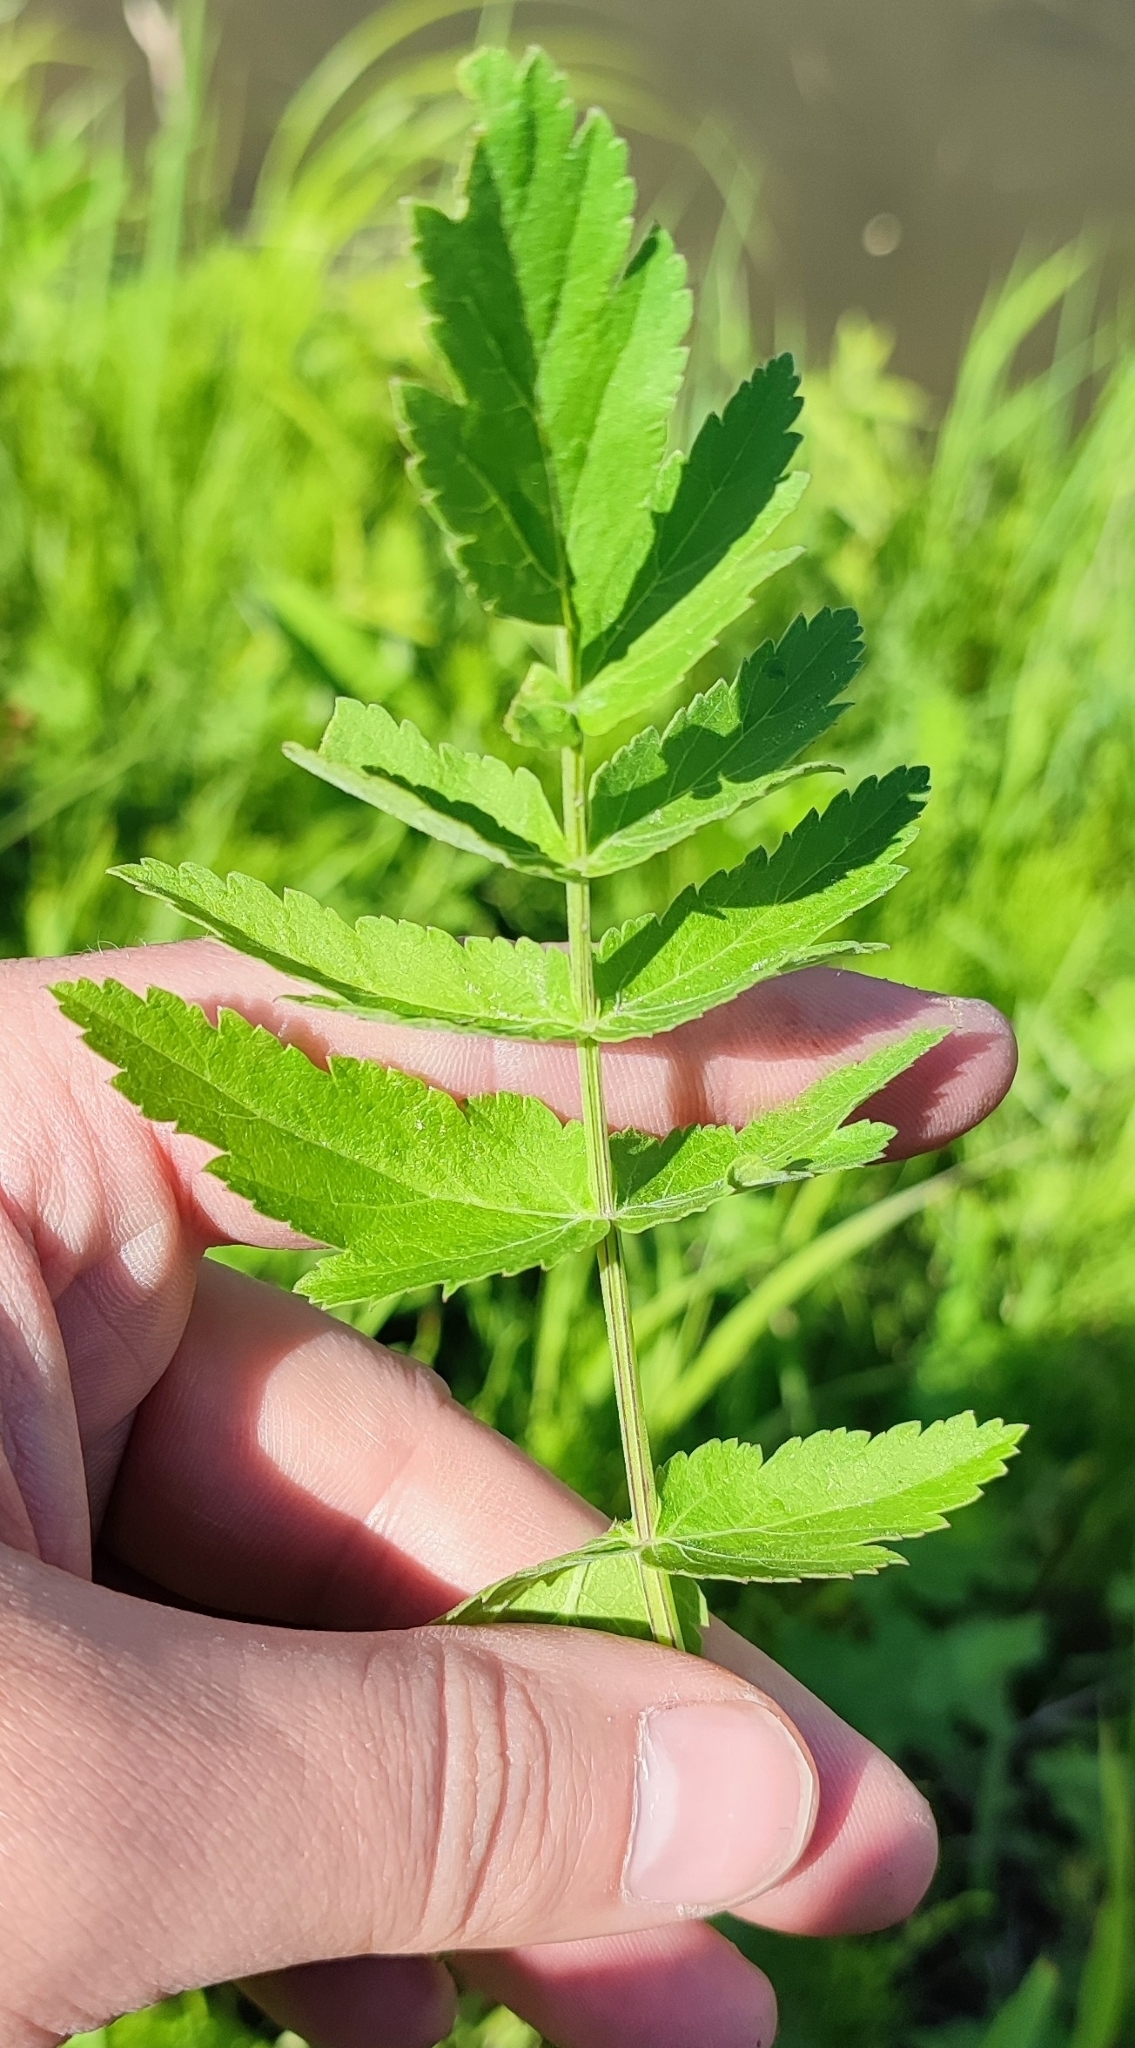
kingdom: Plantae
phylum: Tracheophyta
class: Magnoliopsida
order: Apiales
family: Apiaceae
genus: Pastinaca
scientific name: Pastinaca sativa
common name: Wild parsnip
